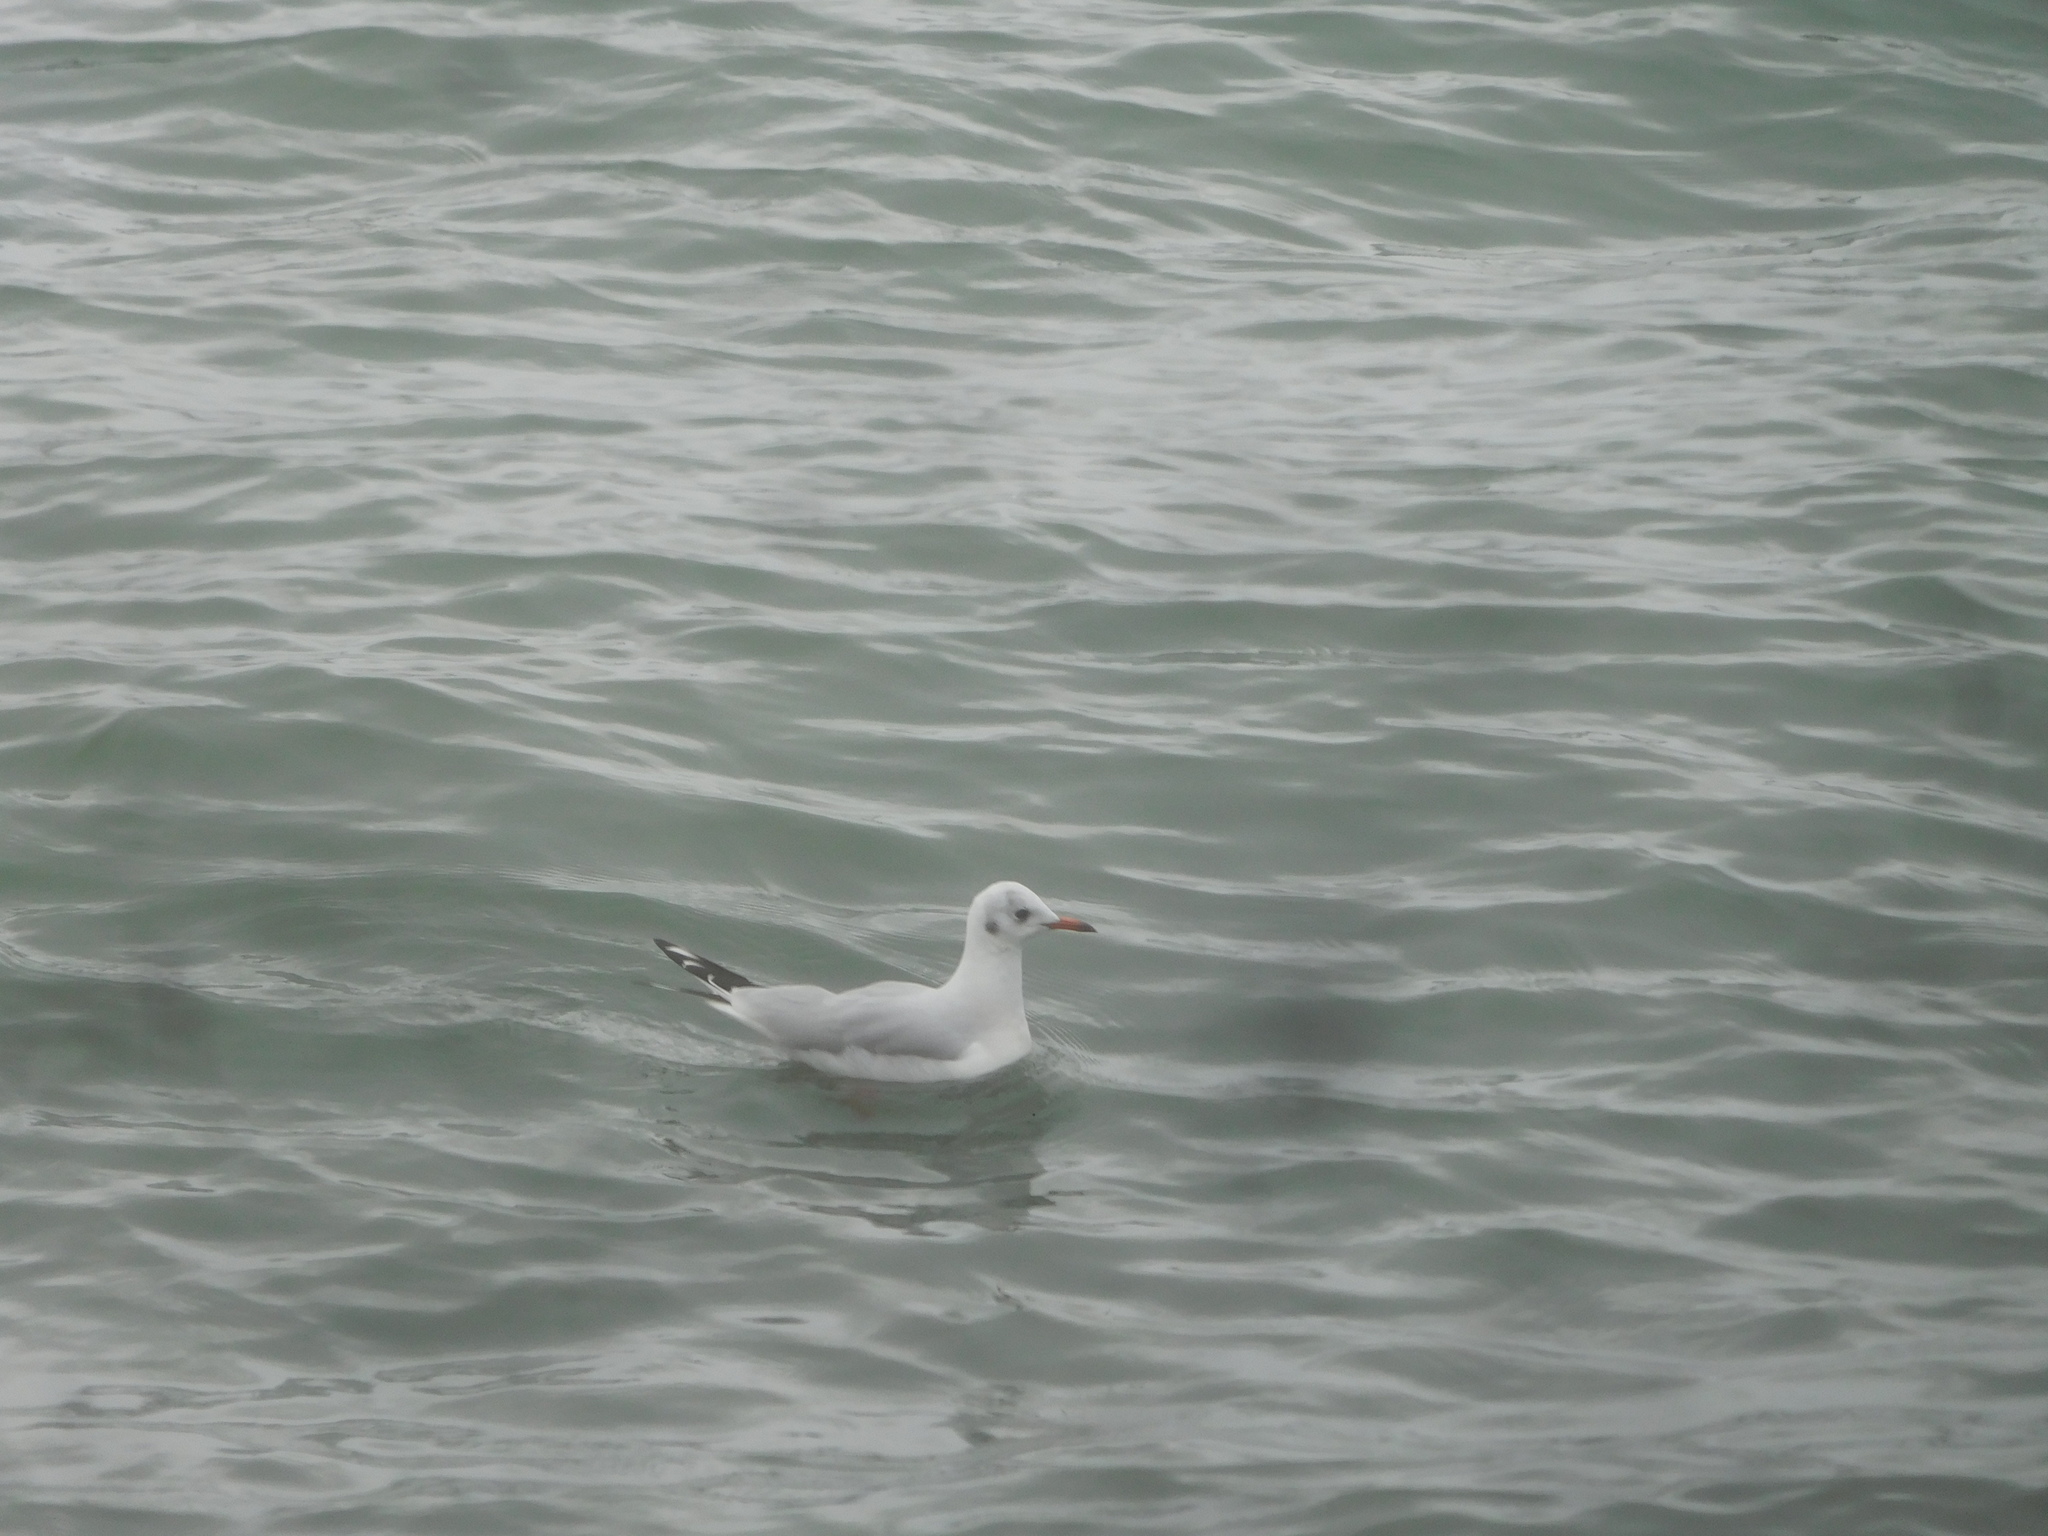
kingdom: Animalia
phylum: Chordata
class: Aves
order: Charadriiformes
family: Laridae
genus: Chroicocephalus
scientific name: Chroicocephalus ridibundus
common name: Black-headed gull
